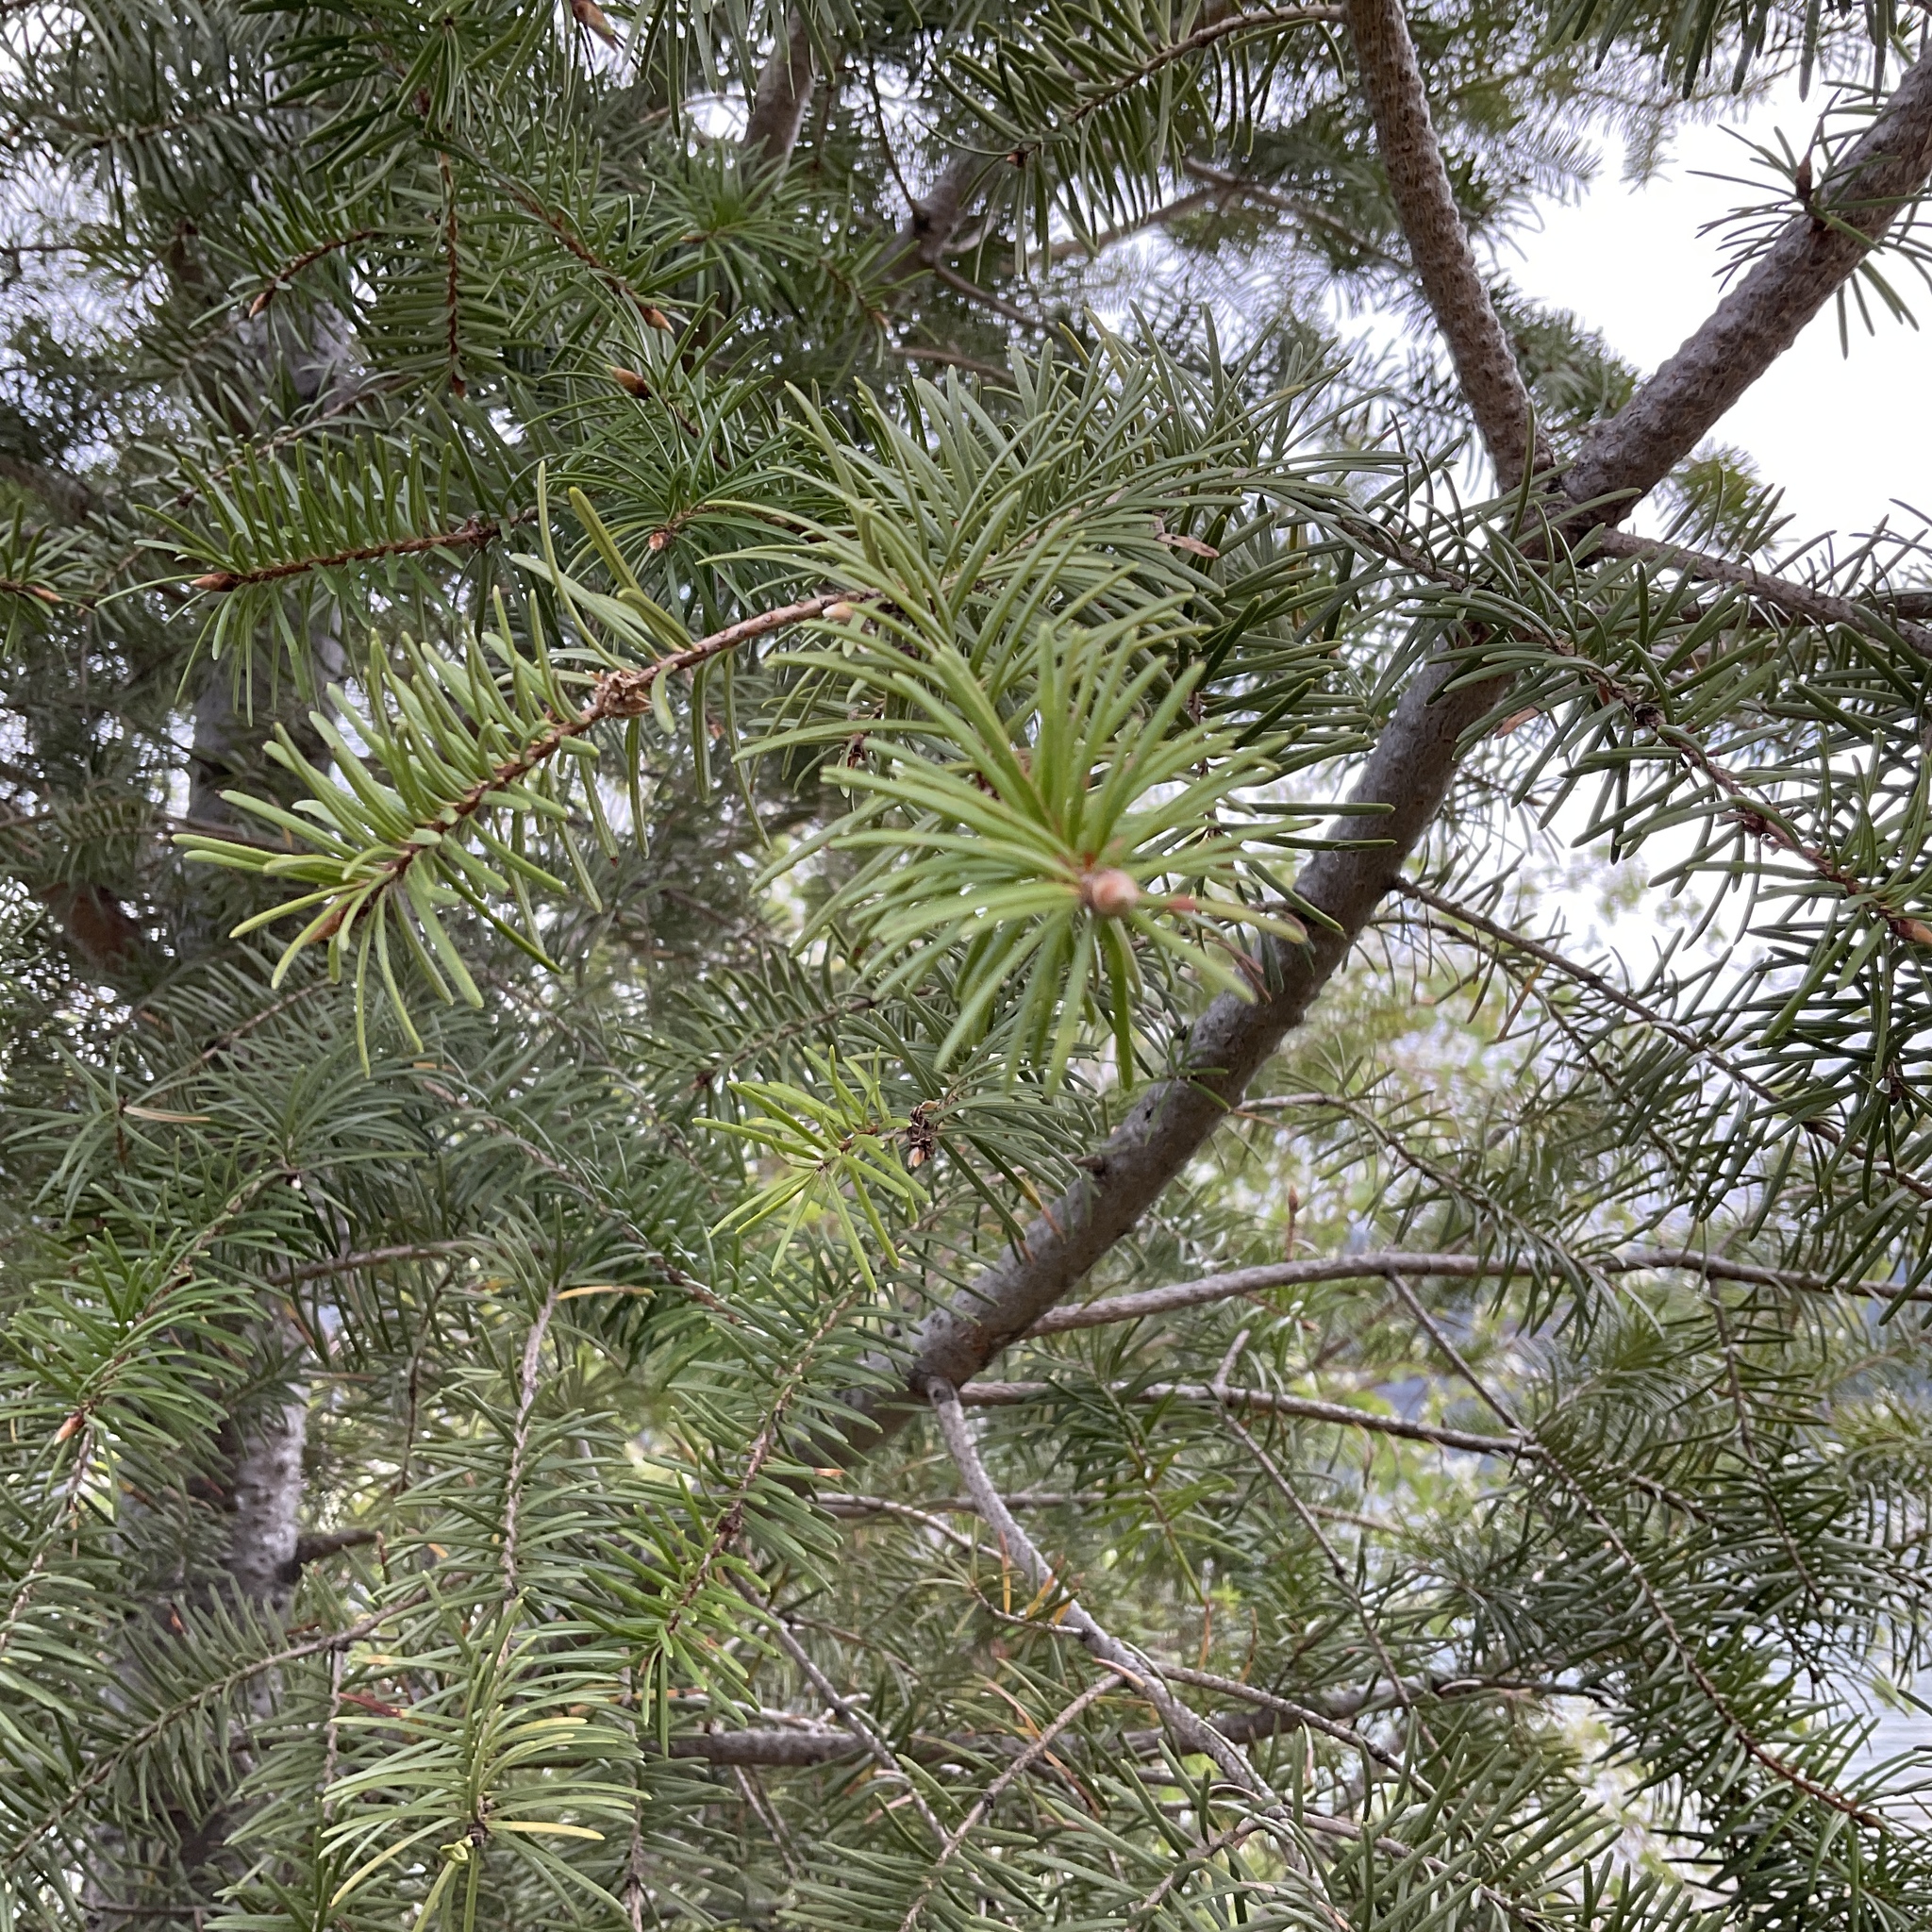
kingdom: Plantae
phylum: Tracheophyta
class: Pinopsida
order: Pinales
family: Pinaceae
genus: Pseudotsuga
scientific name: Pseudotsuga menziesii
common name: Douglas fir
